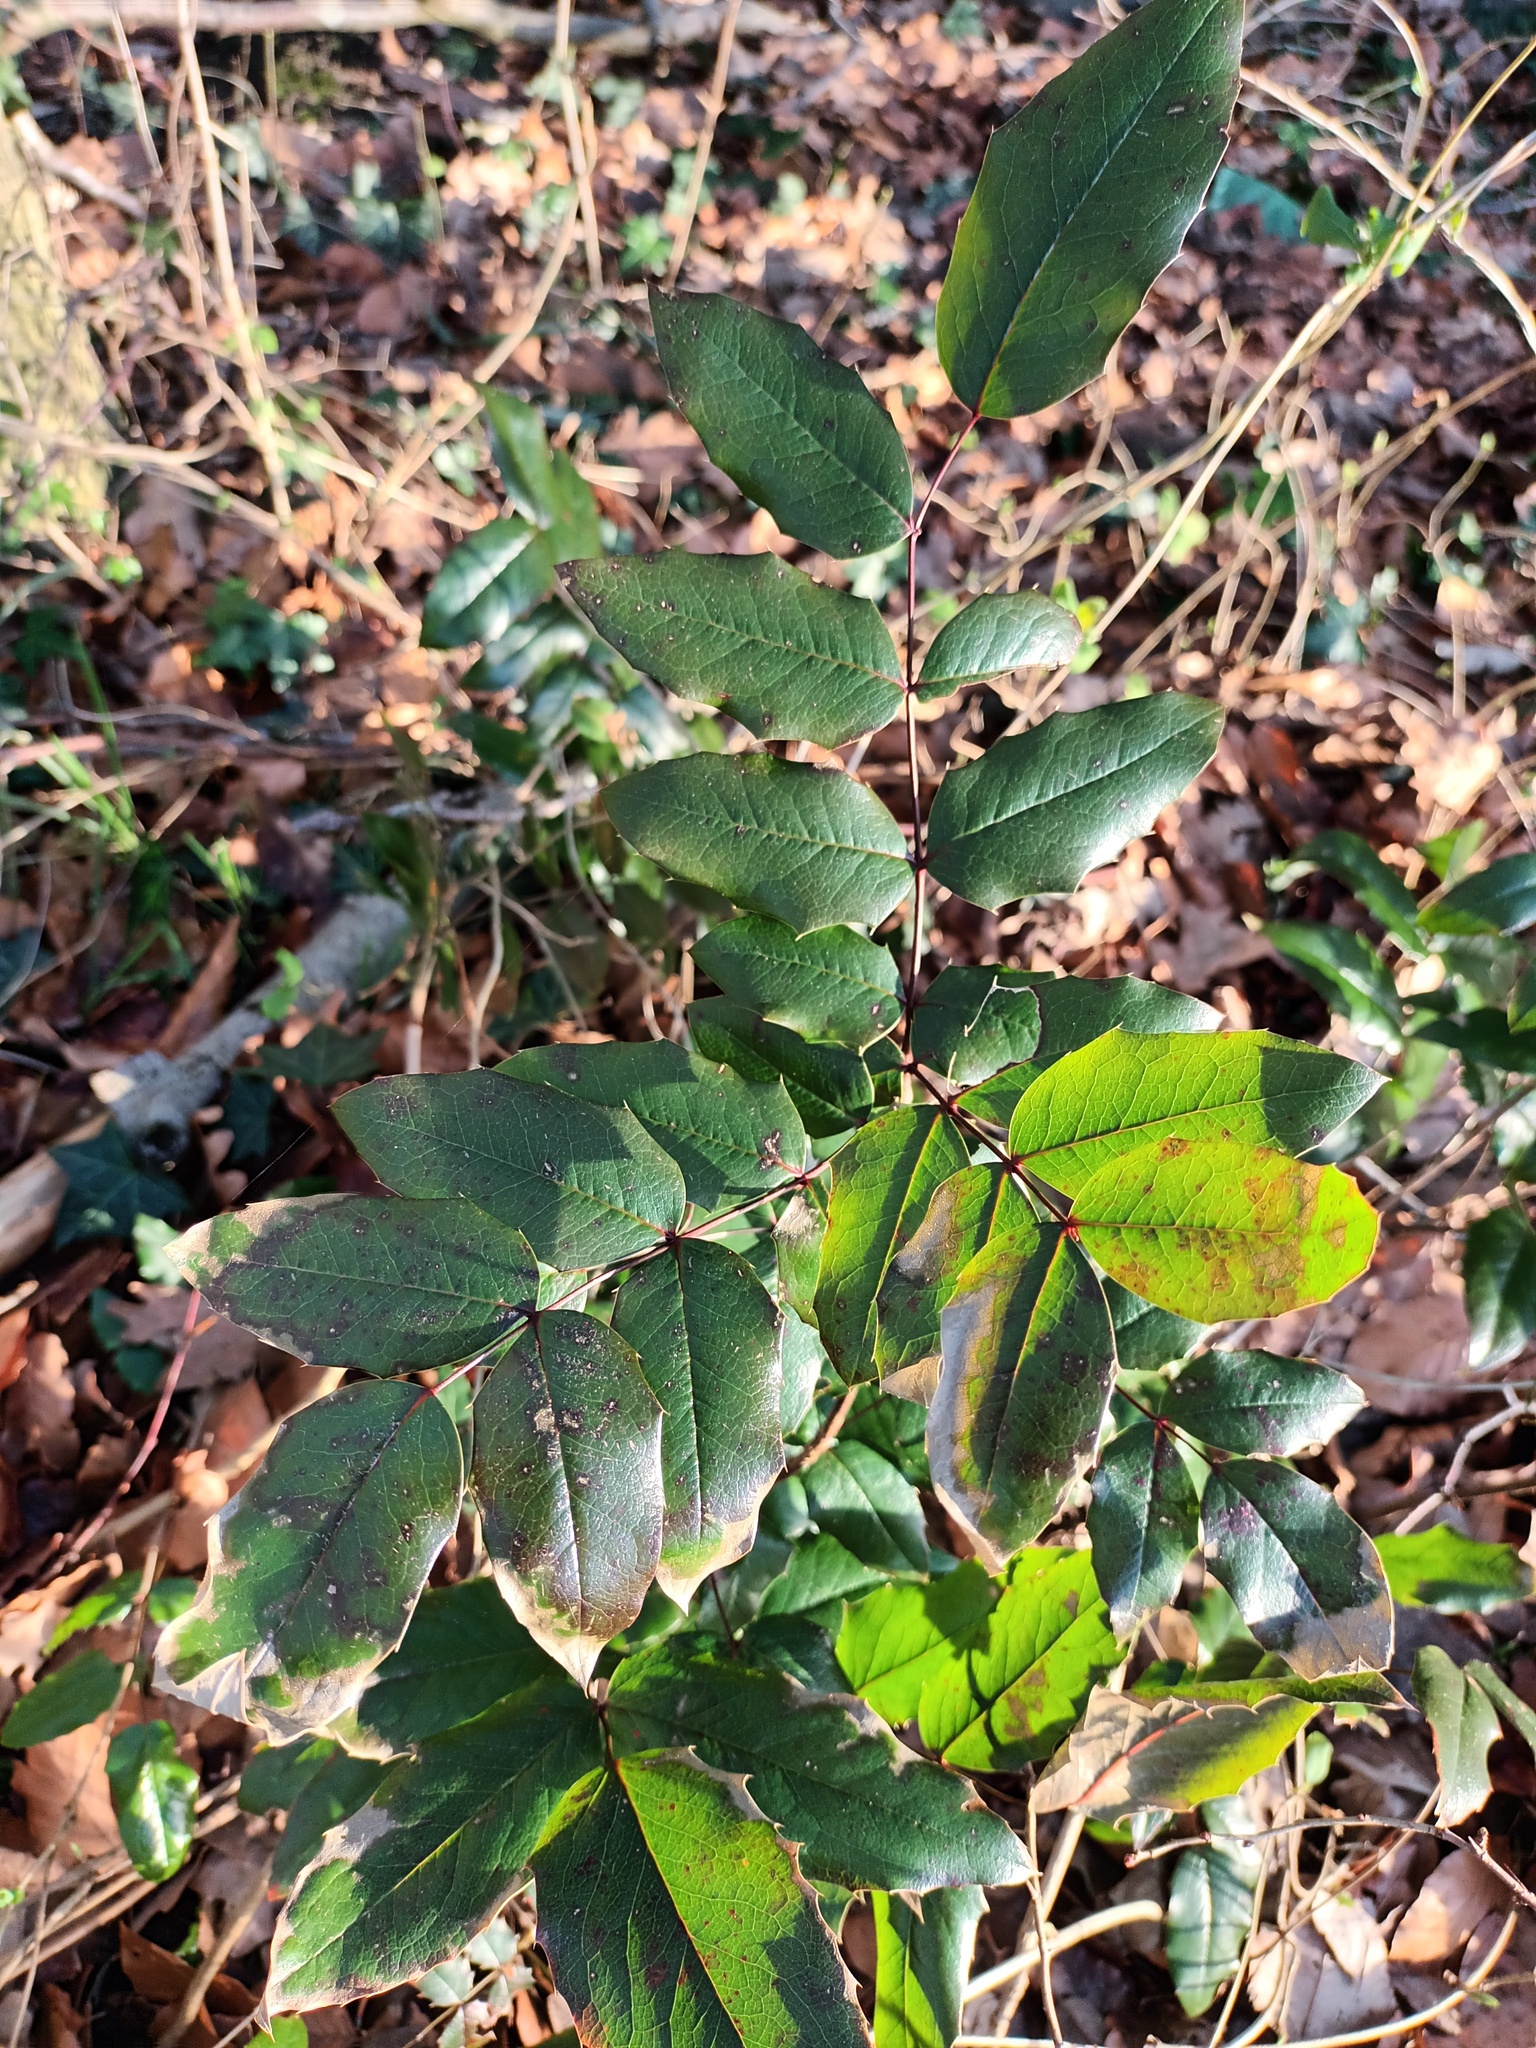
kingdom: Plantae
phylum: Tracheophyta
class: Magnoliopsida
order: Ranunculales
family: Berberidaceae
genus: Mahonia
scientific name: Mahonia aquifolium
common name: Oregon-grape
